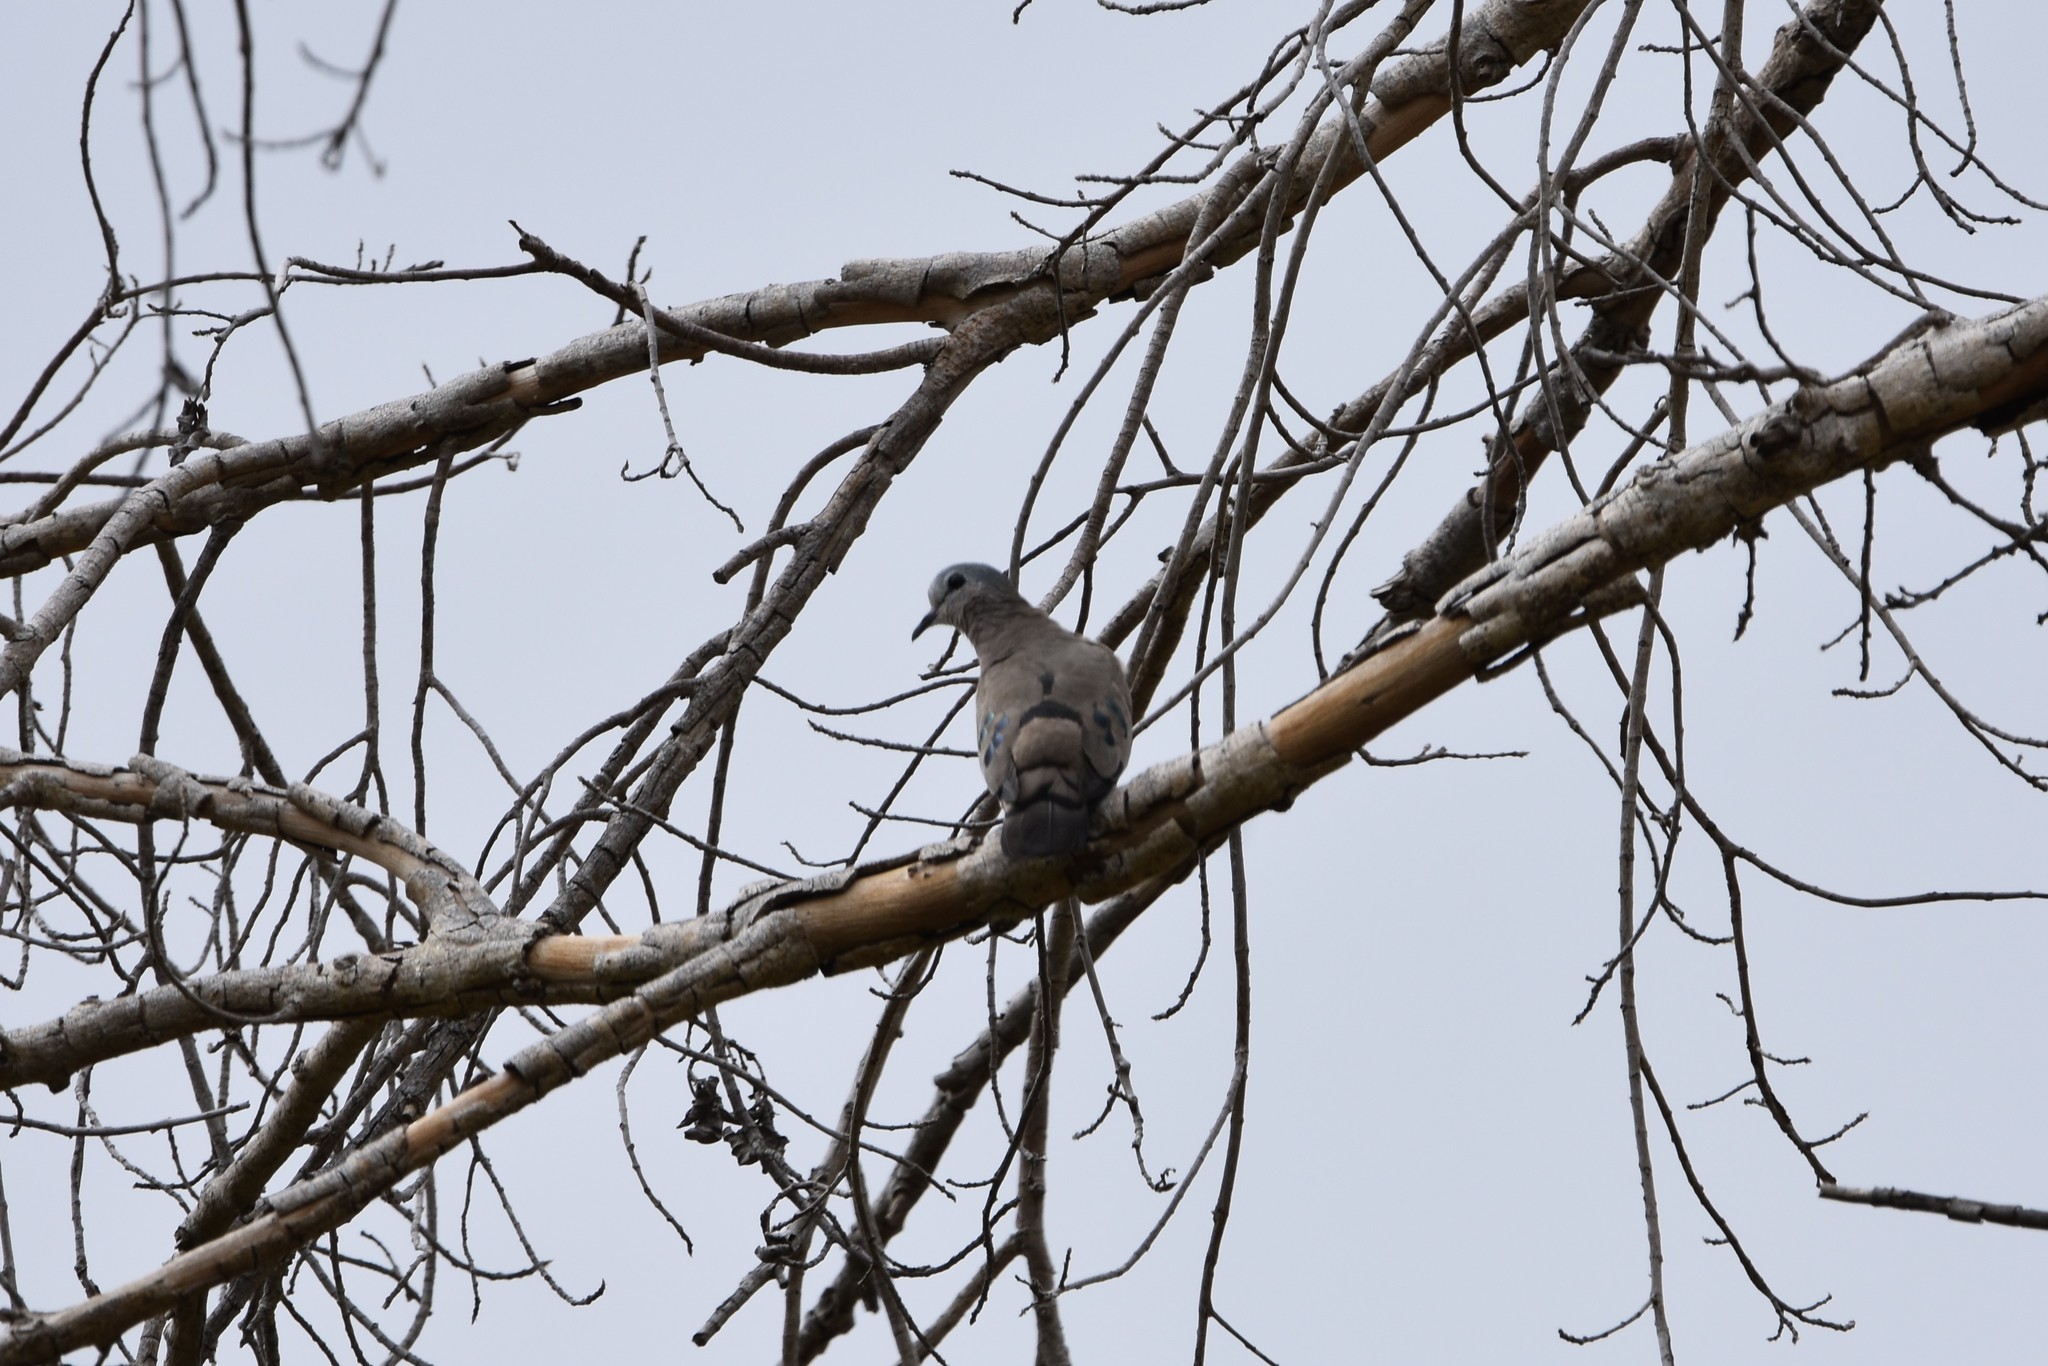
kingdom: Animalia
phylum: Chordata
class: Aves
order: Columbiformes
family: Columbidae
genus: Turtur
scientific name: Turtur chalcospilos
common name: Emerald-spotted wood dove
